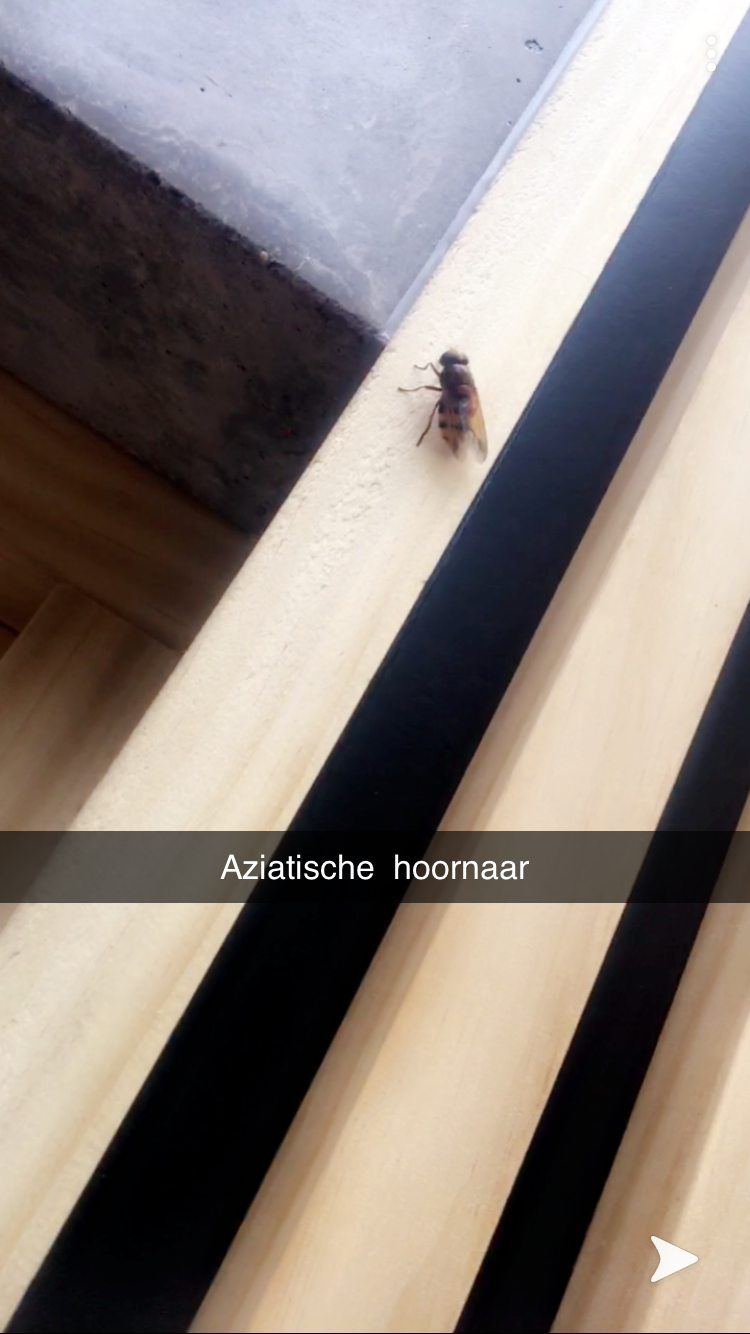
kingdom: Animalia
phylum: Arthropoda
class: Insecta
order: Diptera
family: Syrphidae
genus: Volucella
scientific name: Volucella zonaria
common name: Hornet hoverfly
